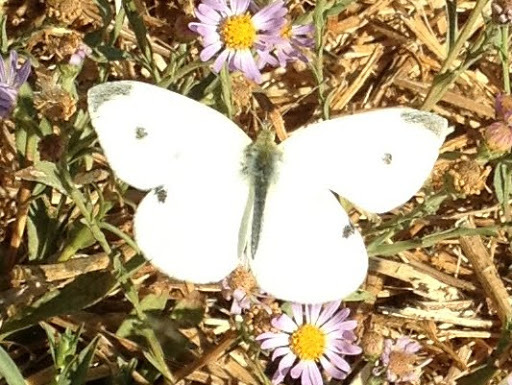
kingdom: Animalia
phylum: Arthropoda
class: Insecta
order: Lepidoptera
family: Pieridae
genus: Pieris
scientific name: Pieris rapae
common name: Small white
